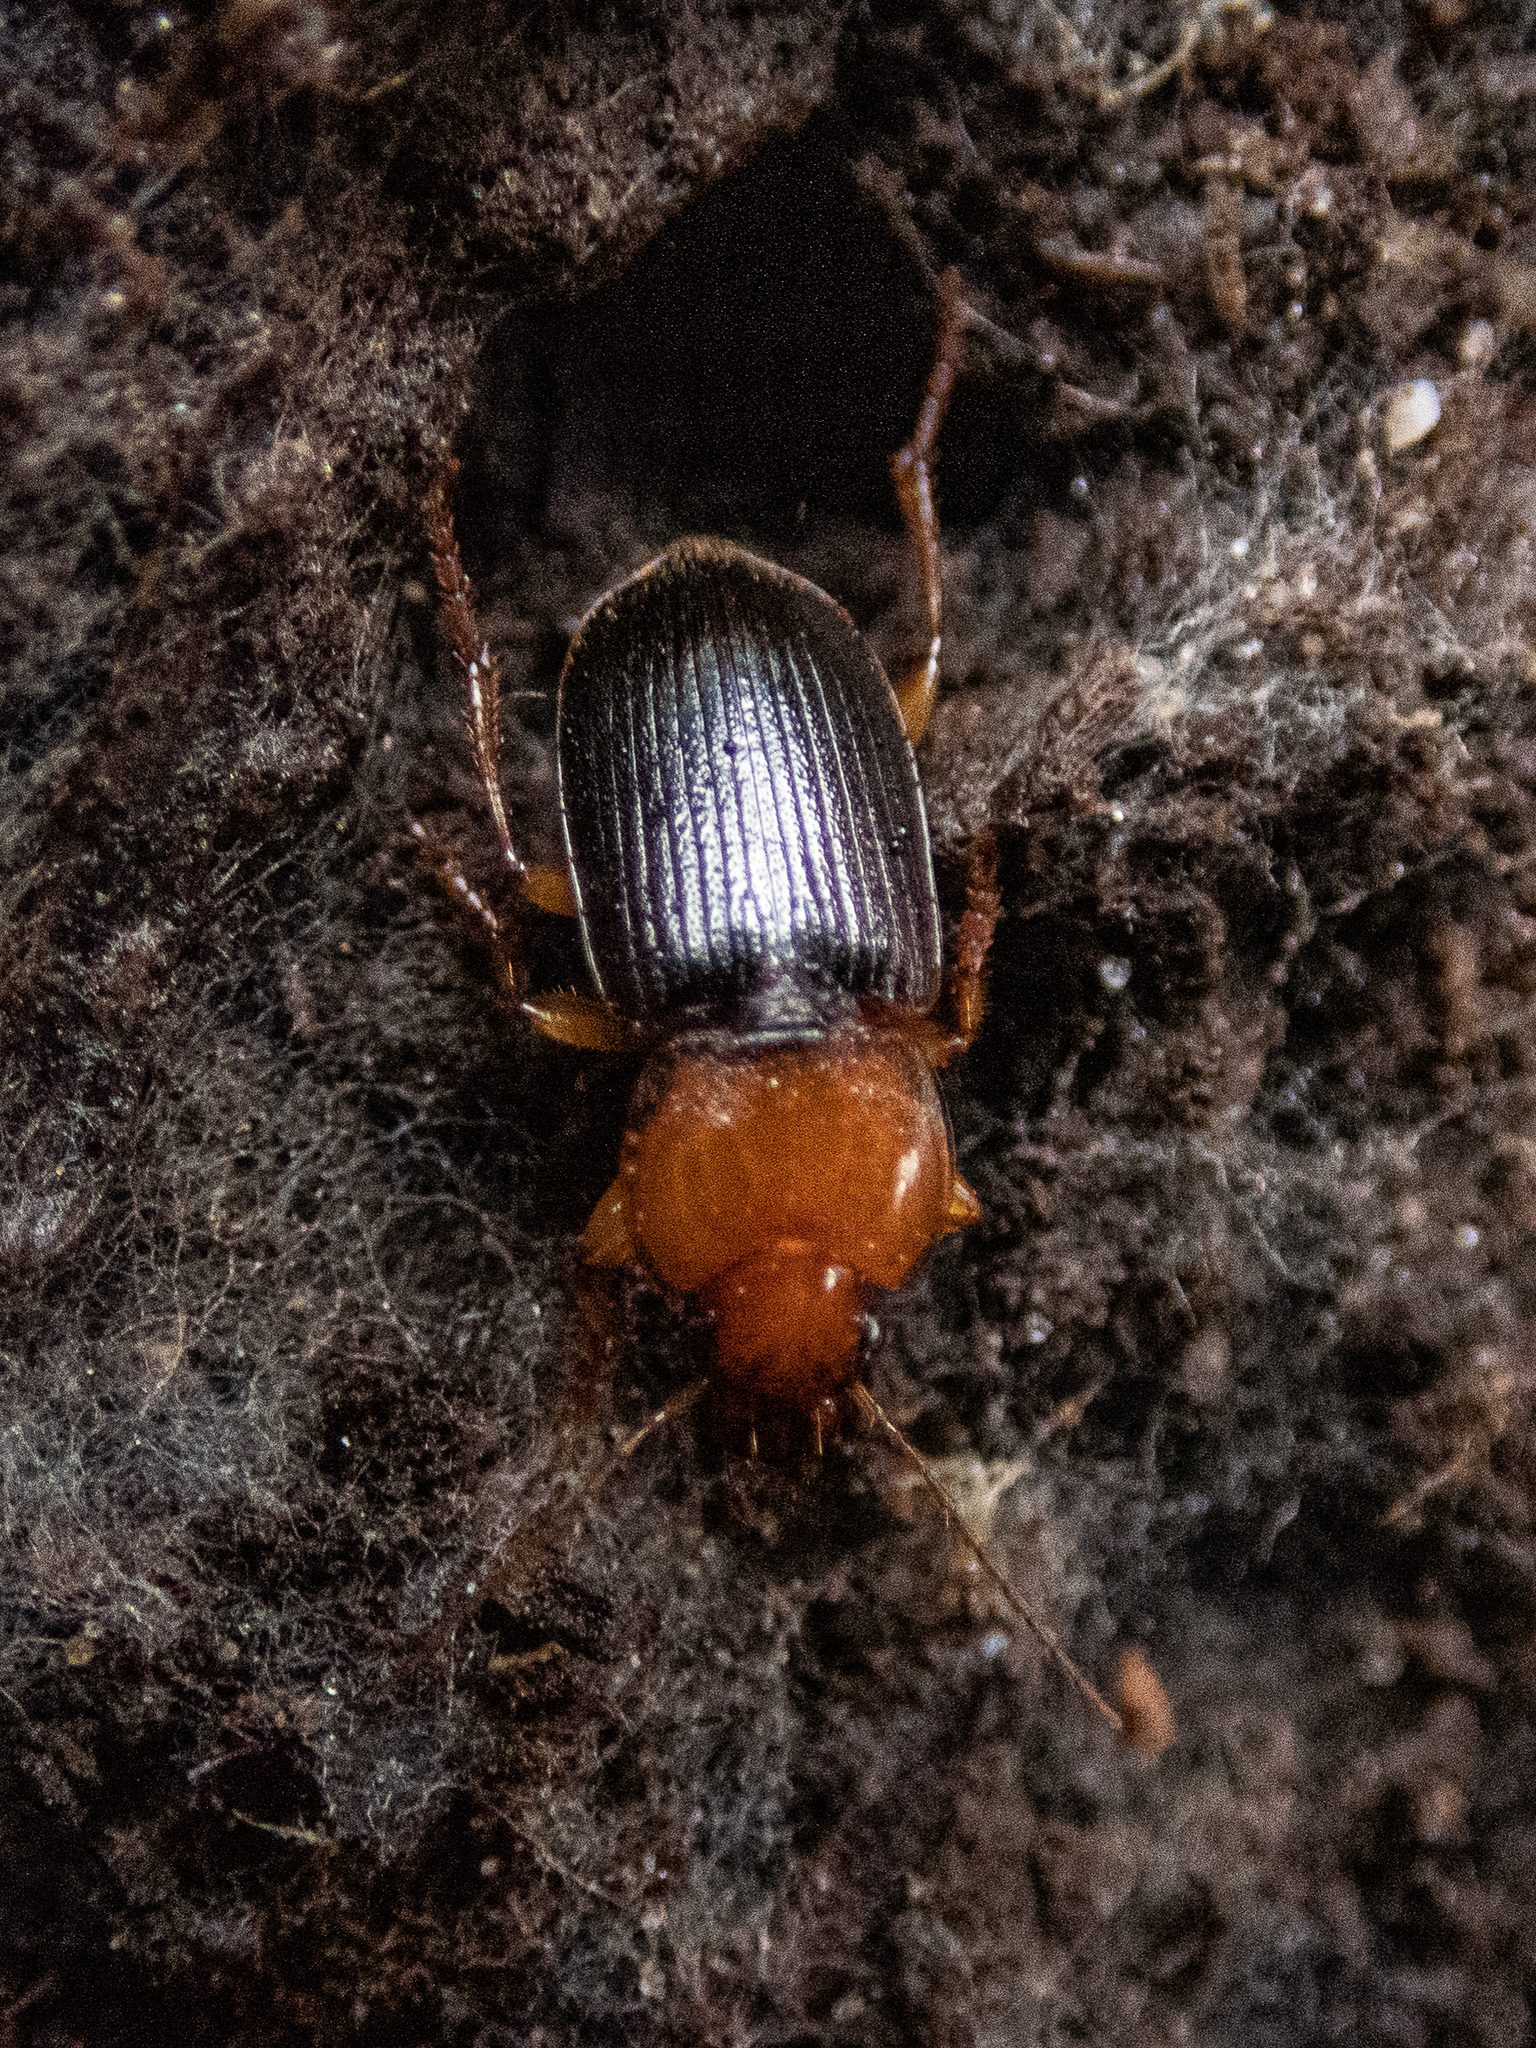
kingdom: Animalia
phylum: Arthropoda
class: Insecta
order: Coleoptera
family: Carabidae
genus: Amphasia
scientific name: Amphasia interstitialis
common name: Red-headed ground beetle
